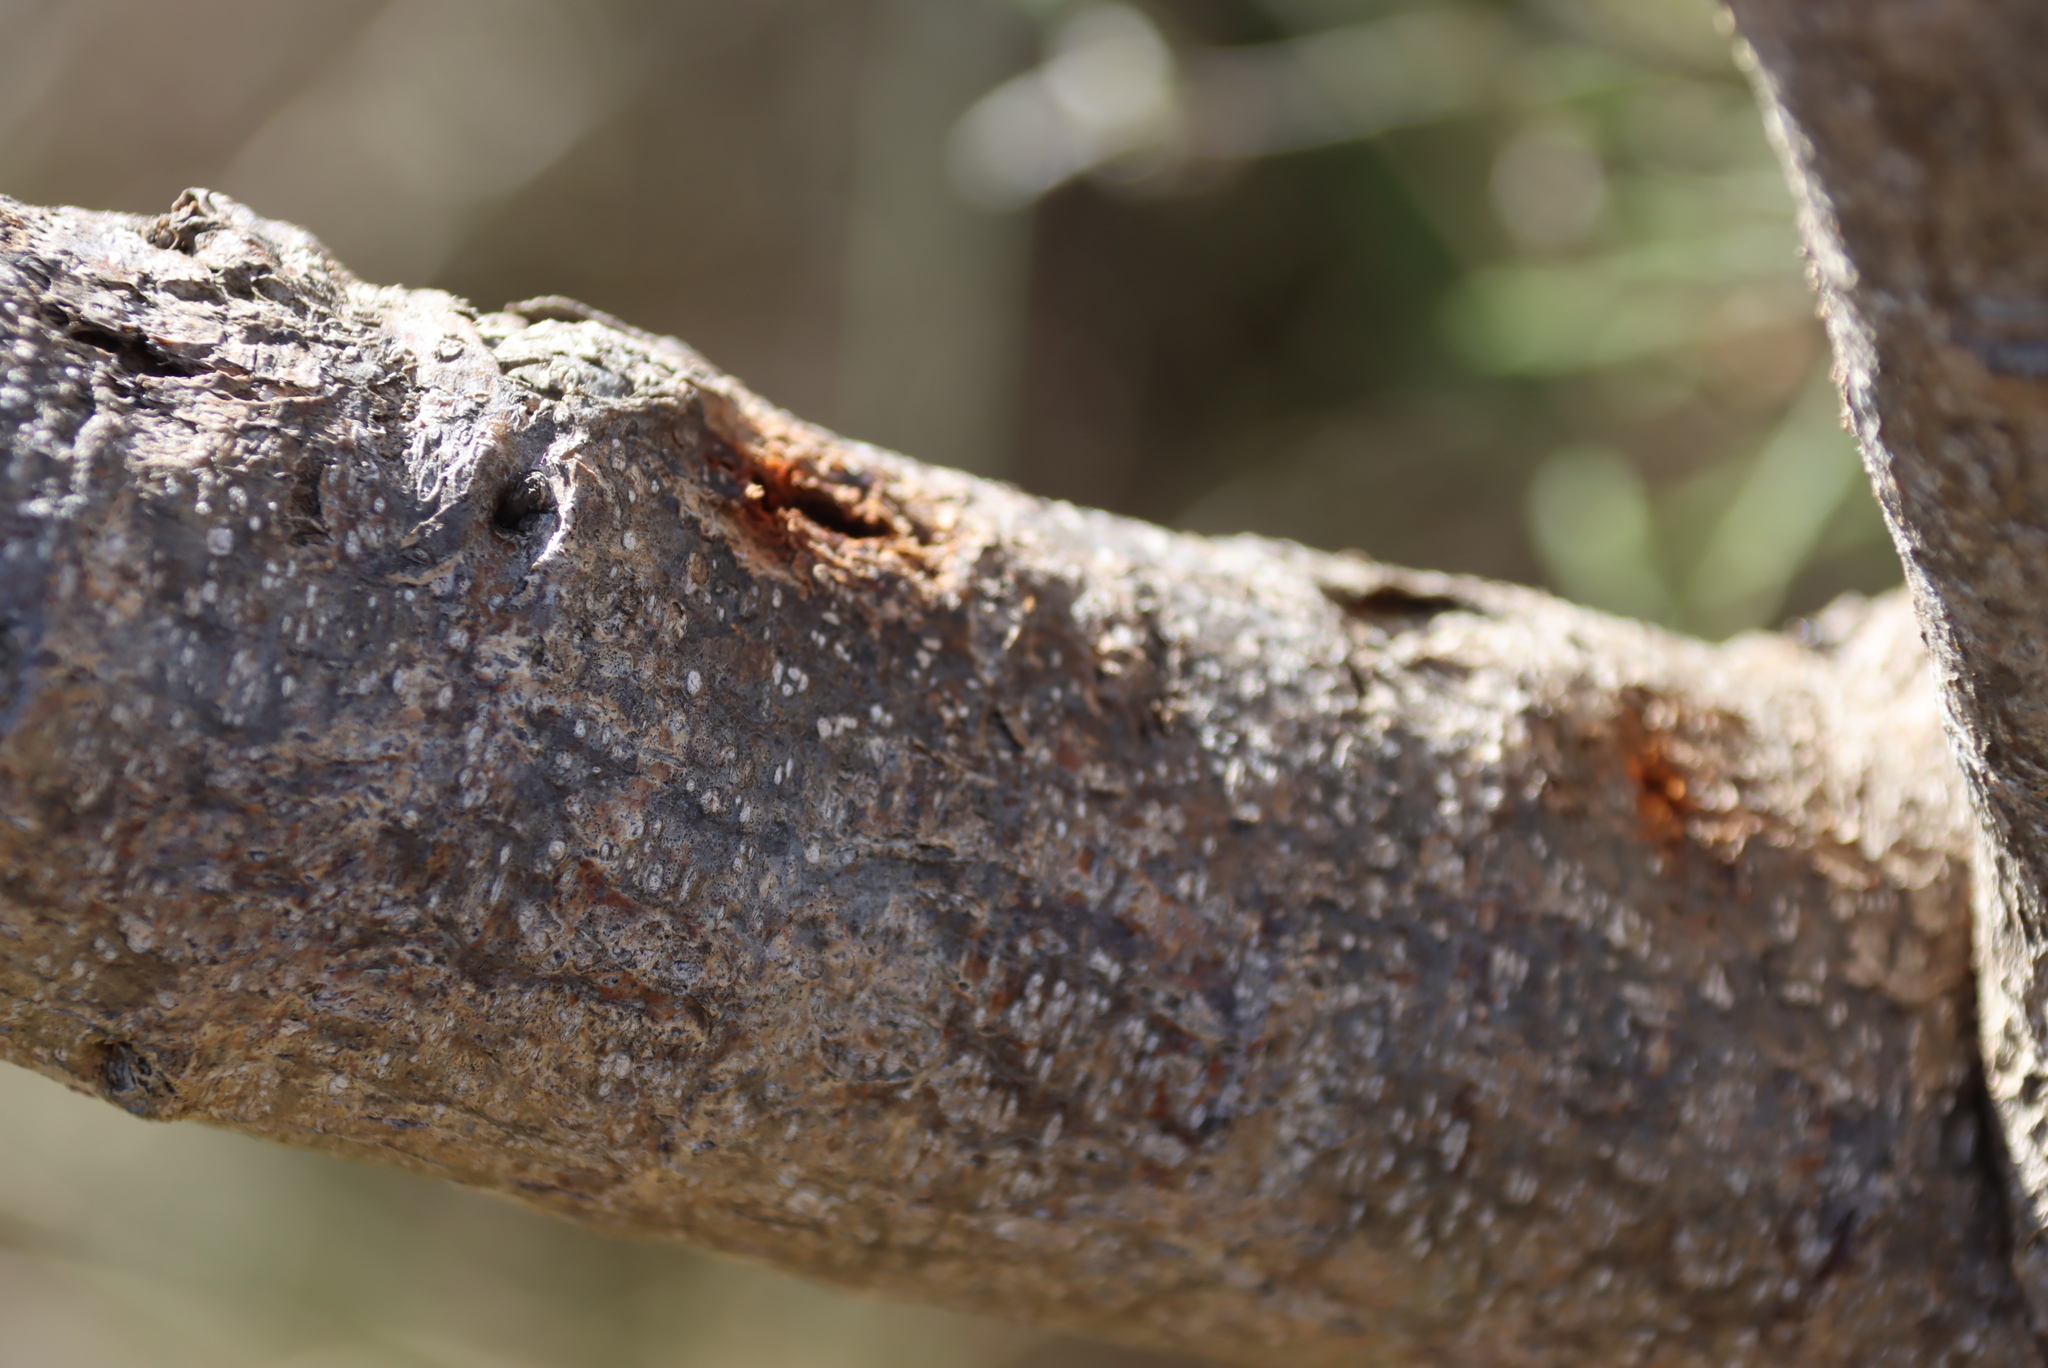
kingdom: Plantae
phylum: Tracheophyta
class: Magnoliopsida
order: Fabales
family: Fabaceae
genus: Psoralea
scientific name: Psoralea pinnata
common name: African scurfpea
